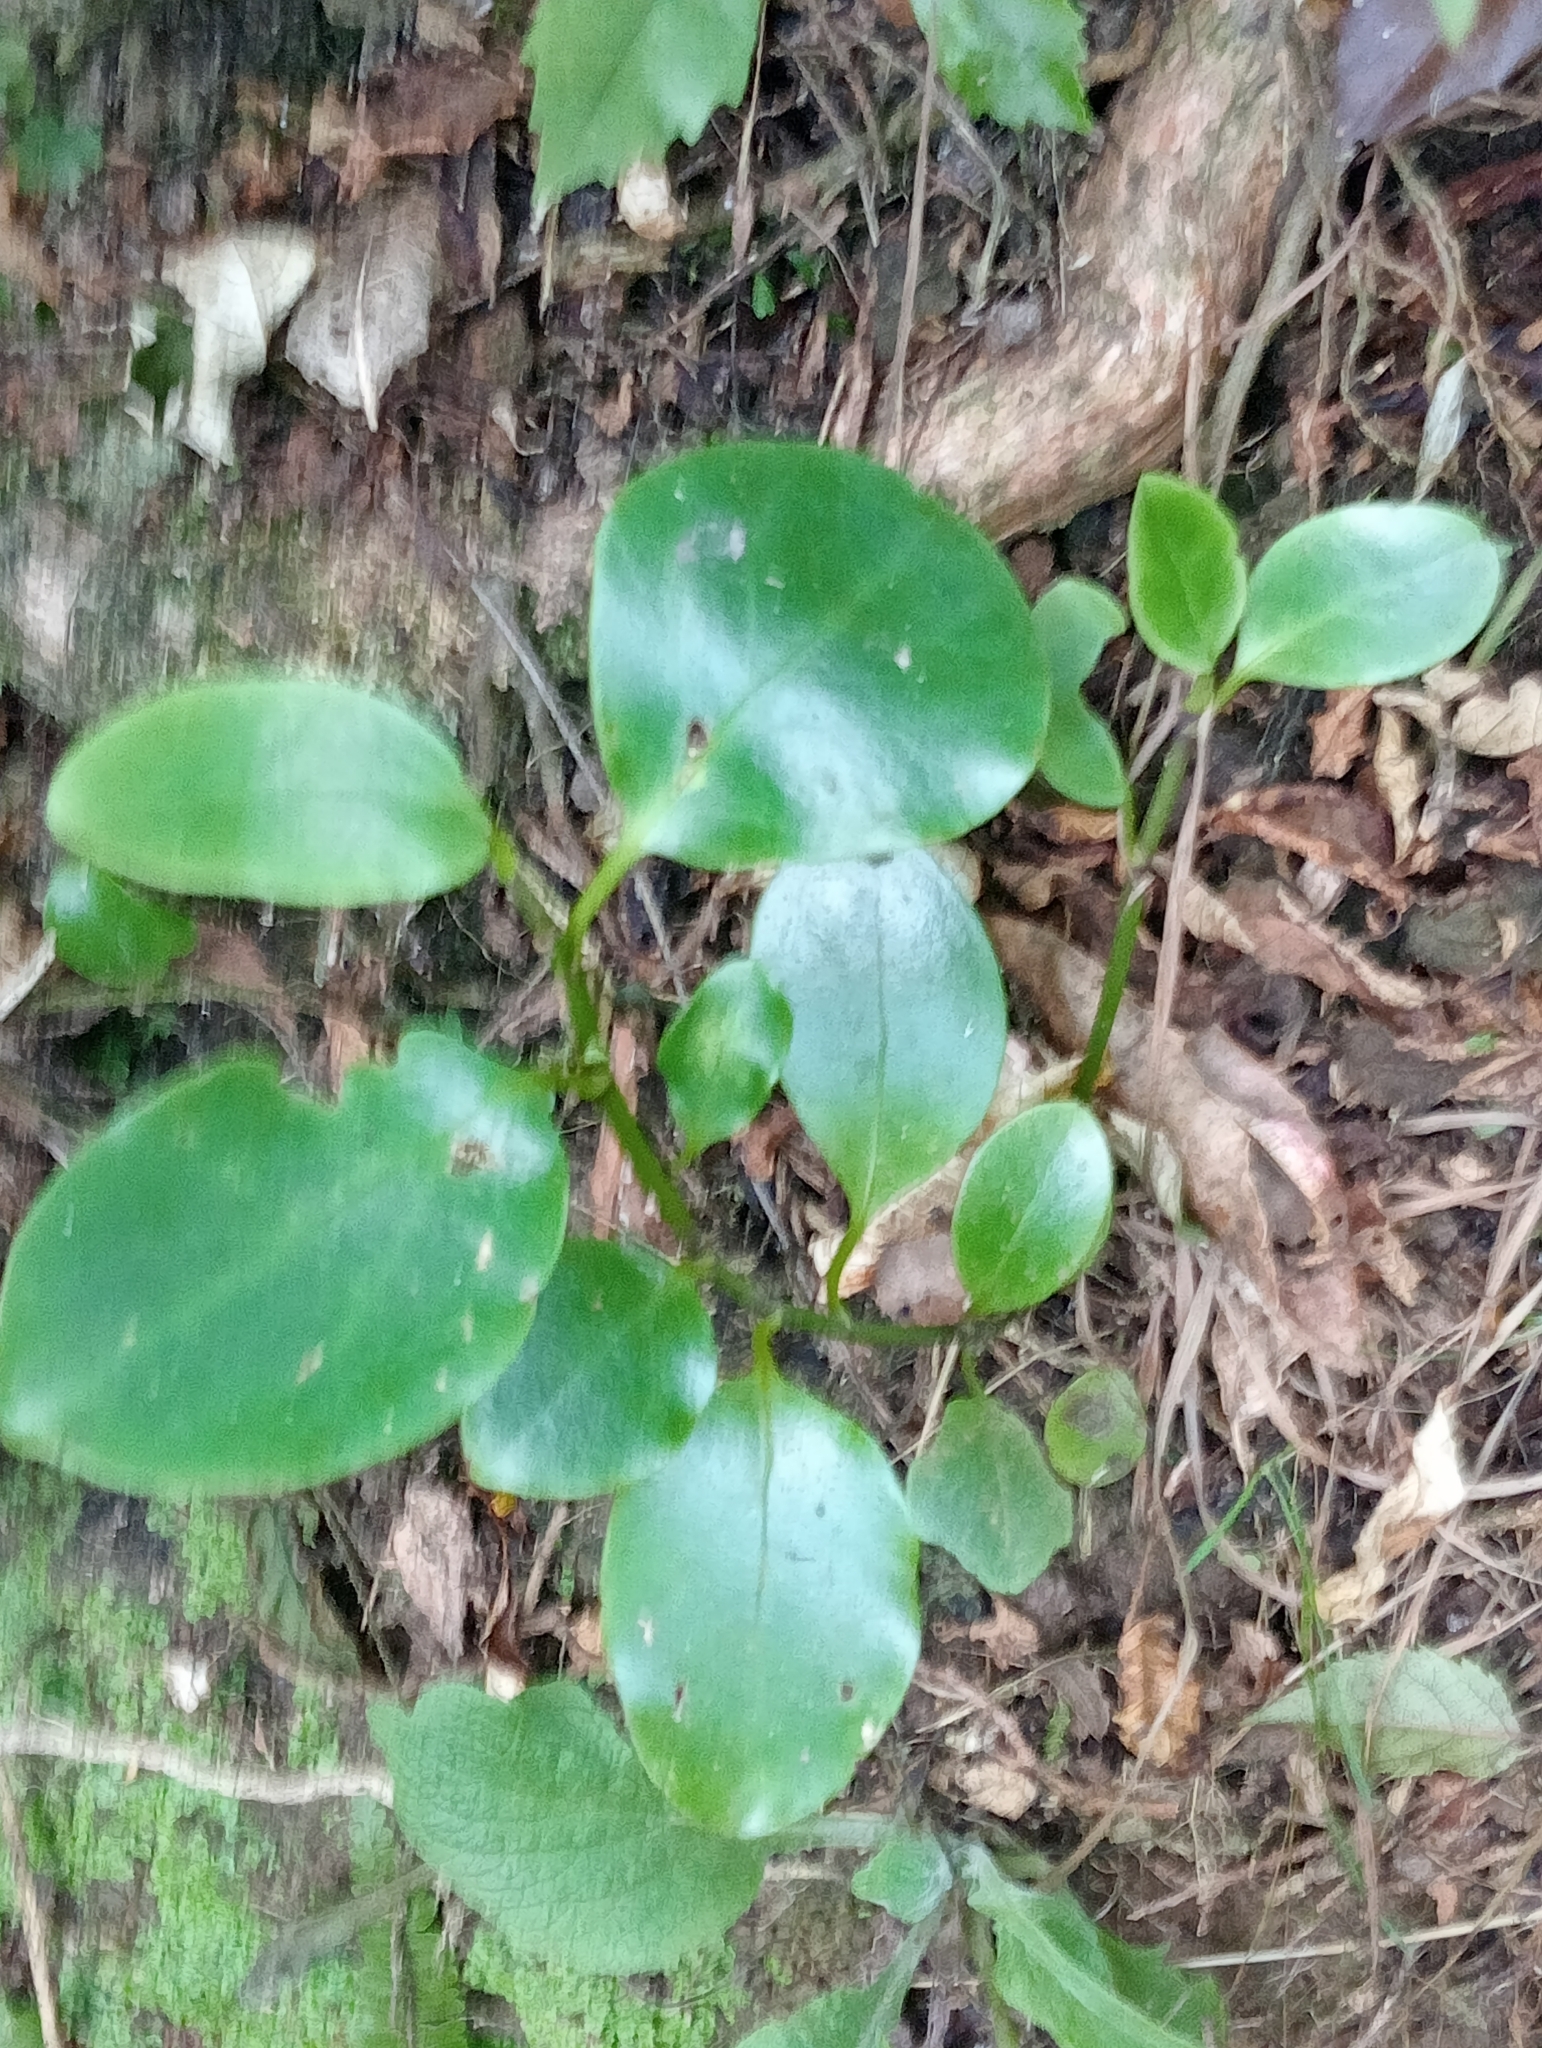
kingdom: Plantae
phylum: Tracheophyta
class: Magnoliopsida
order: Apiales
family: Griseliniaceae
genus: Griselinia
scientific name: Griselinia littoralis
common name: New zealand broadleaf
